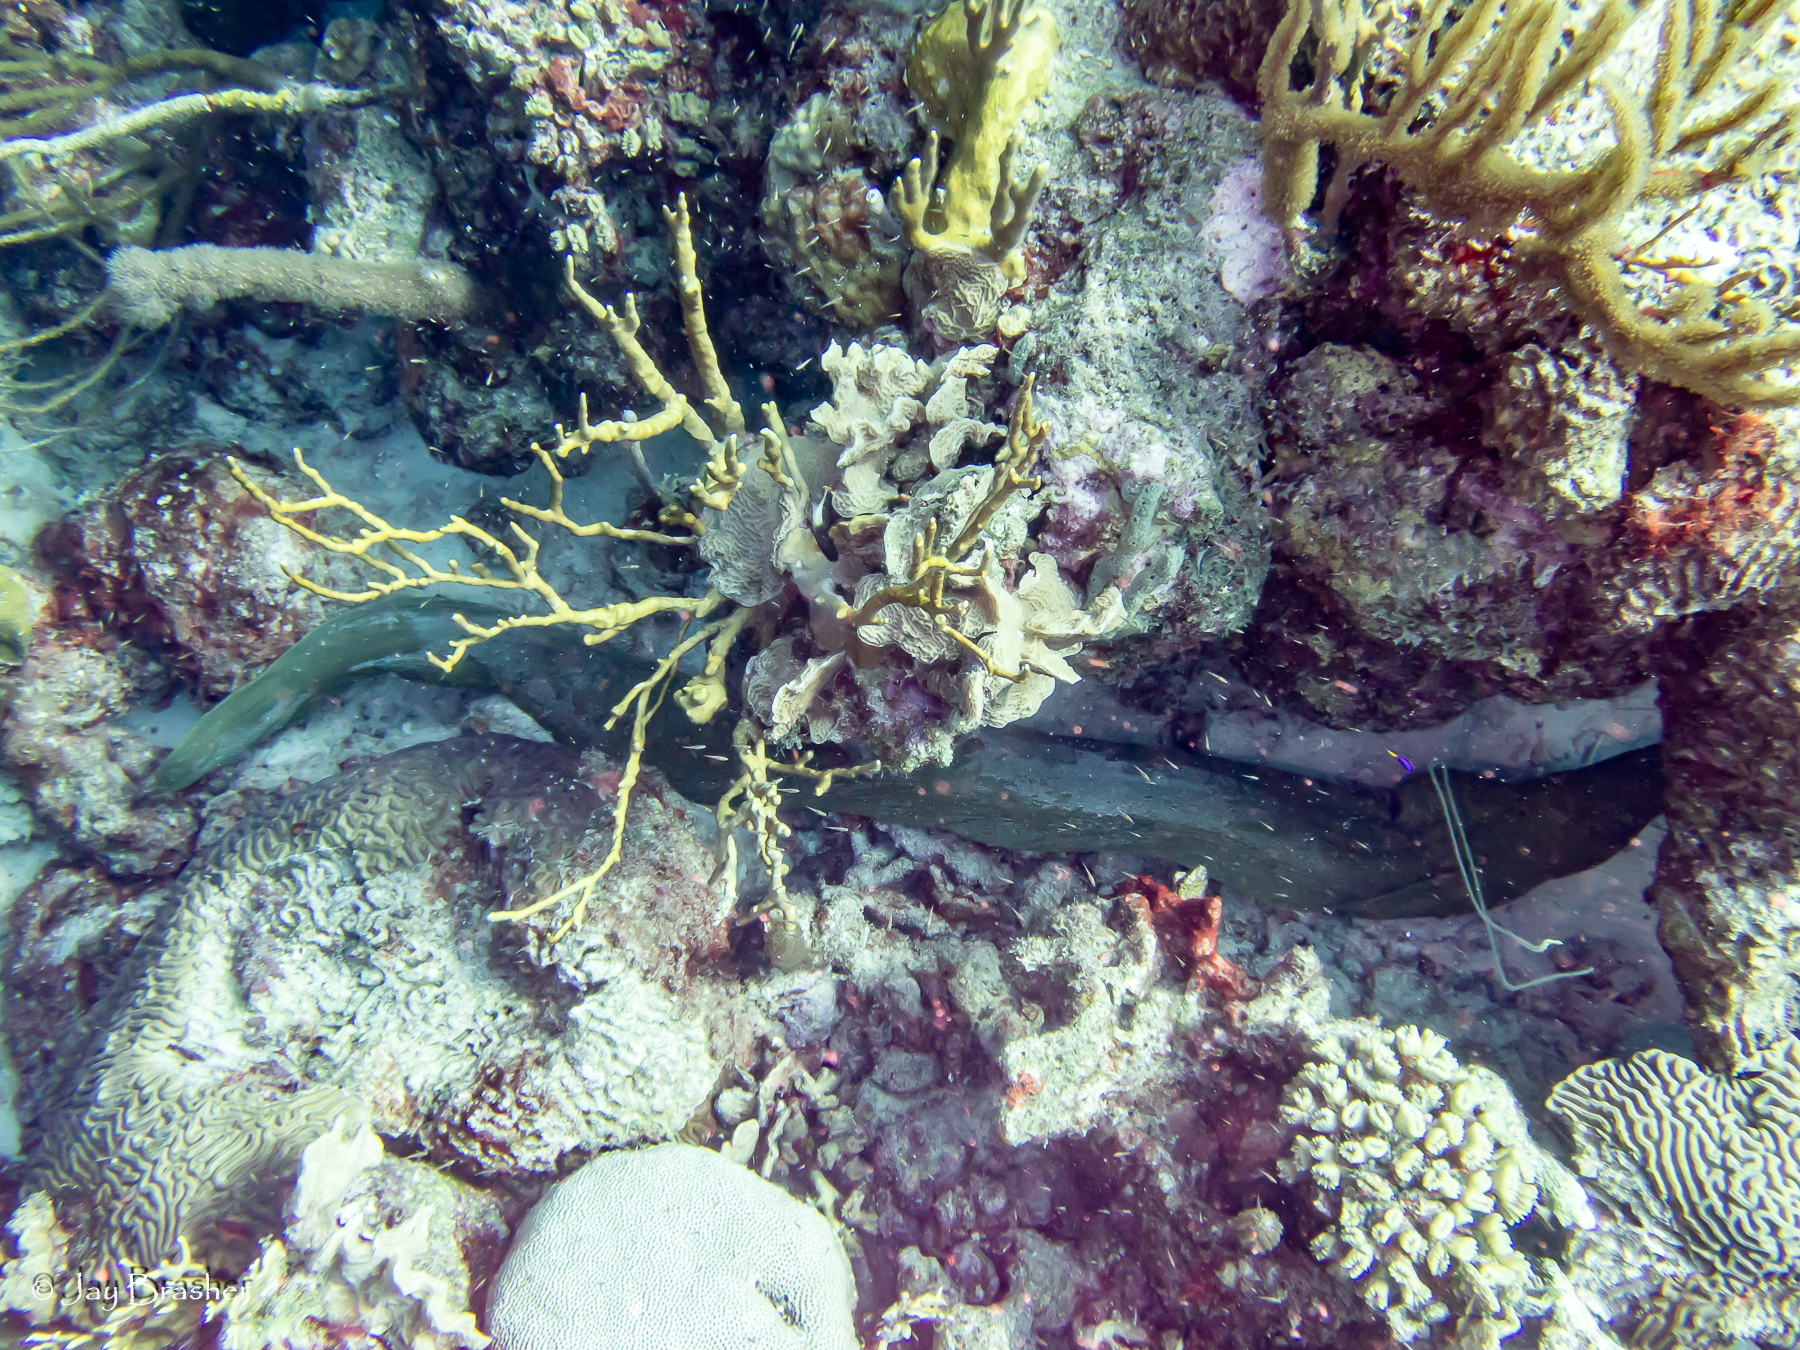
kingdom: Animalia
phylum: Chordata
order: Anguilliformes
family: Muraenidae
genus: Gymnothorax
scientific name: Gymnothorax funebris
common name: Green moray
